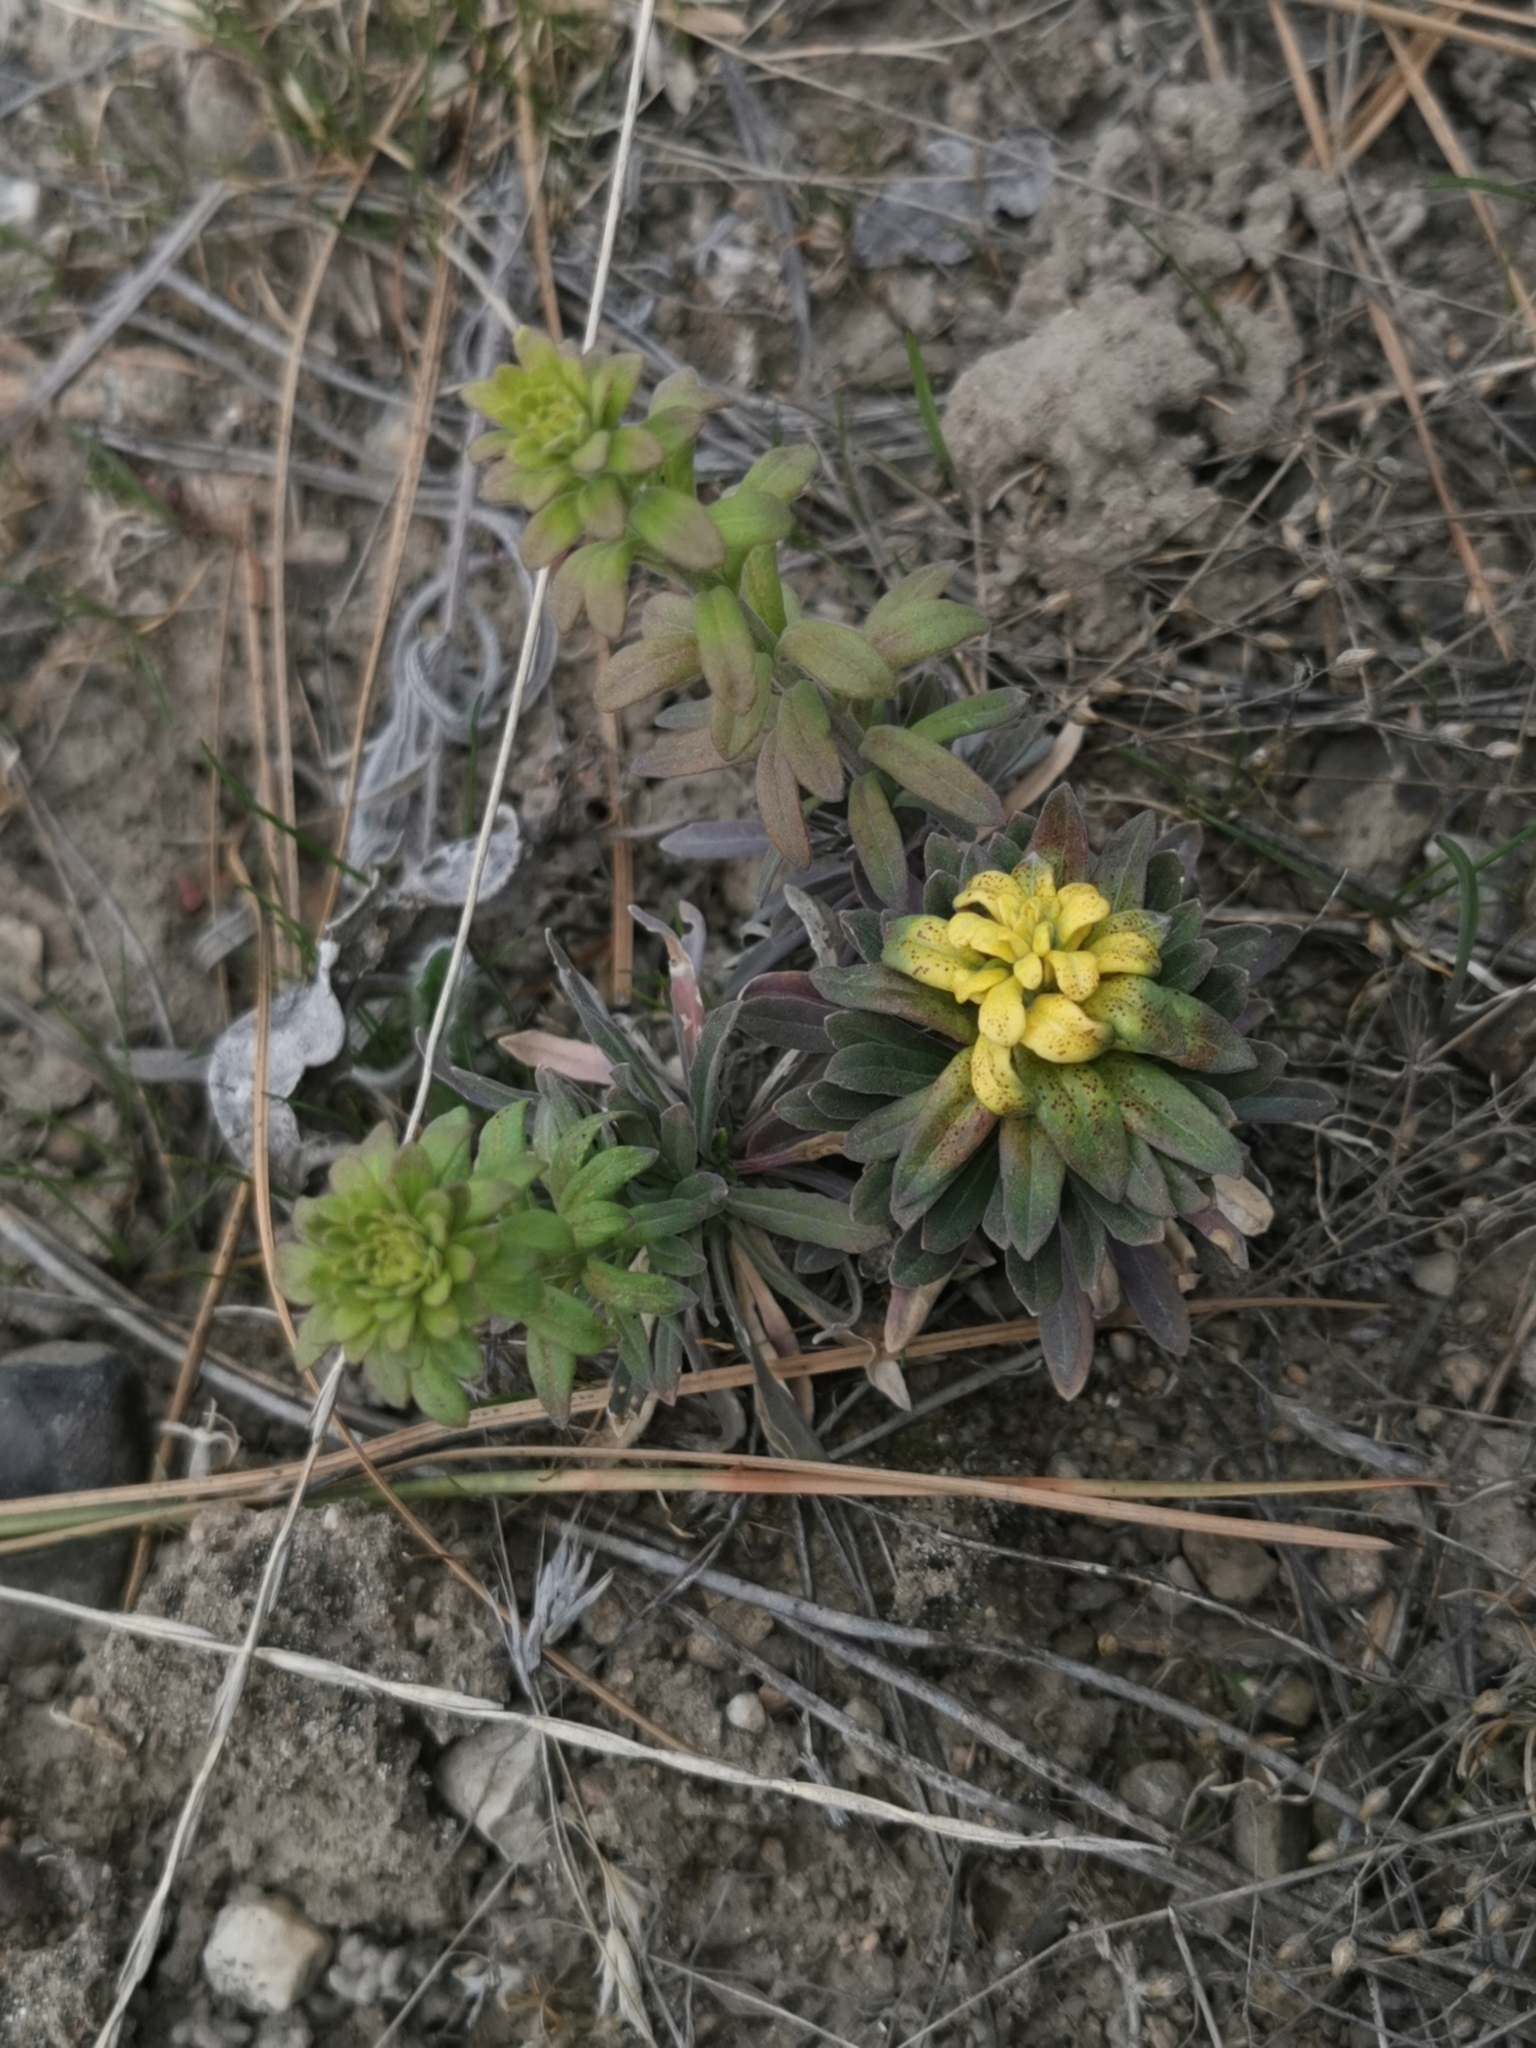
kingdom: Fungi
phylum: Basidiomycota
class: Pucciniomycetes
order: Pucciniales
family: Pucciniaceae
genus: Puccinia
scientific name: Puccinia monoica
